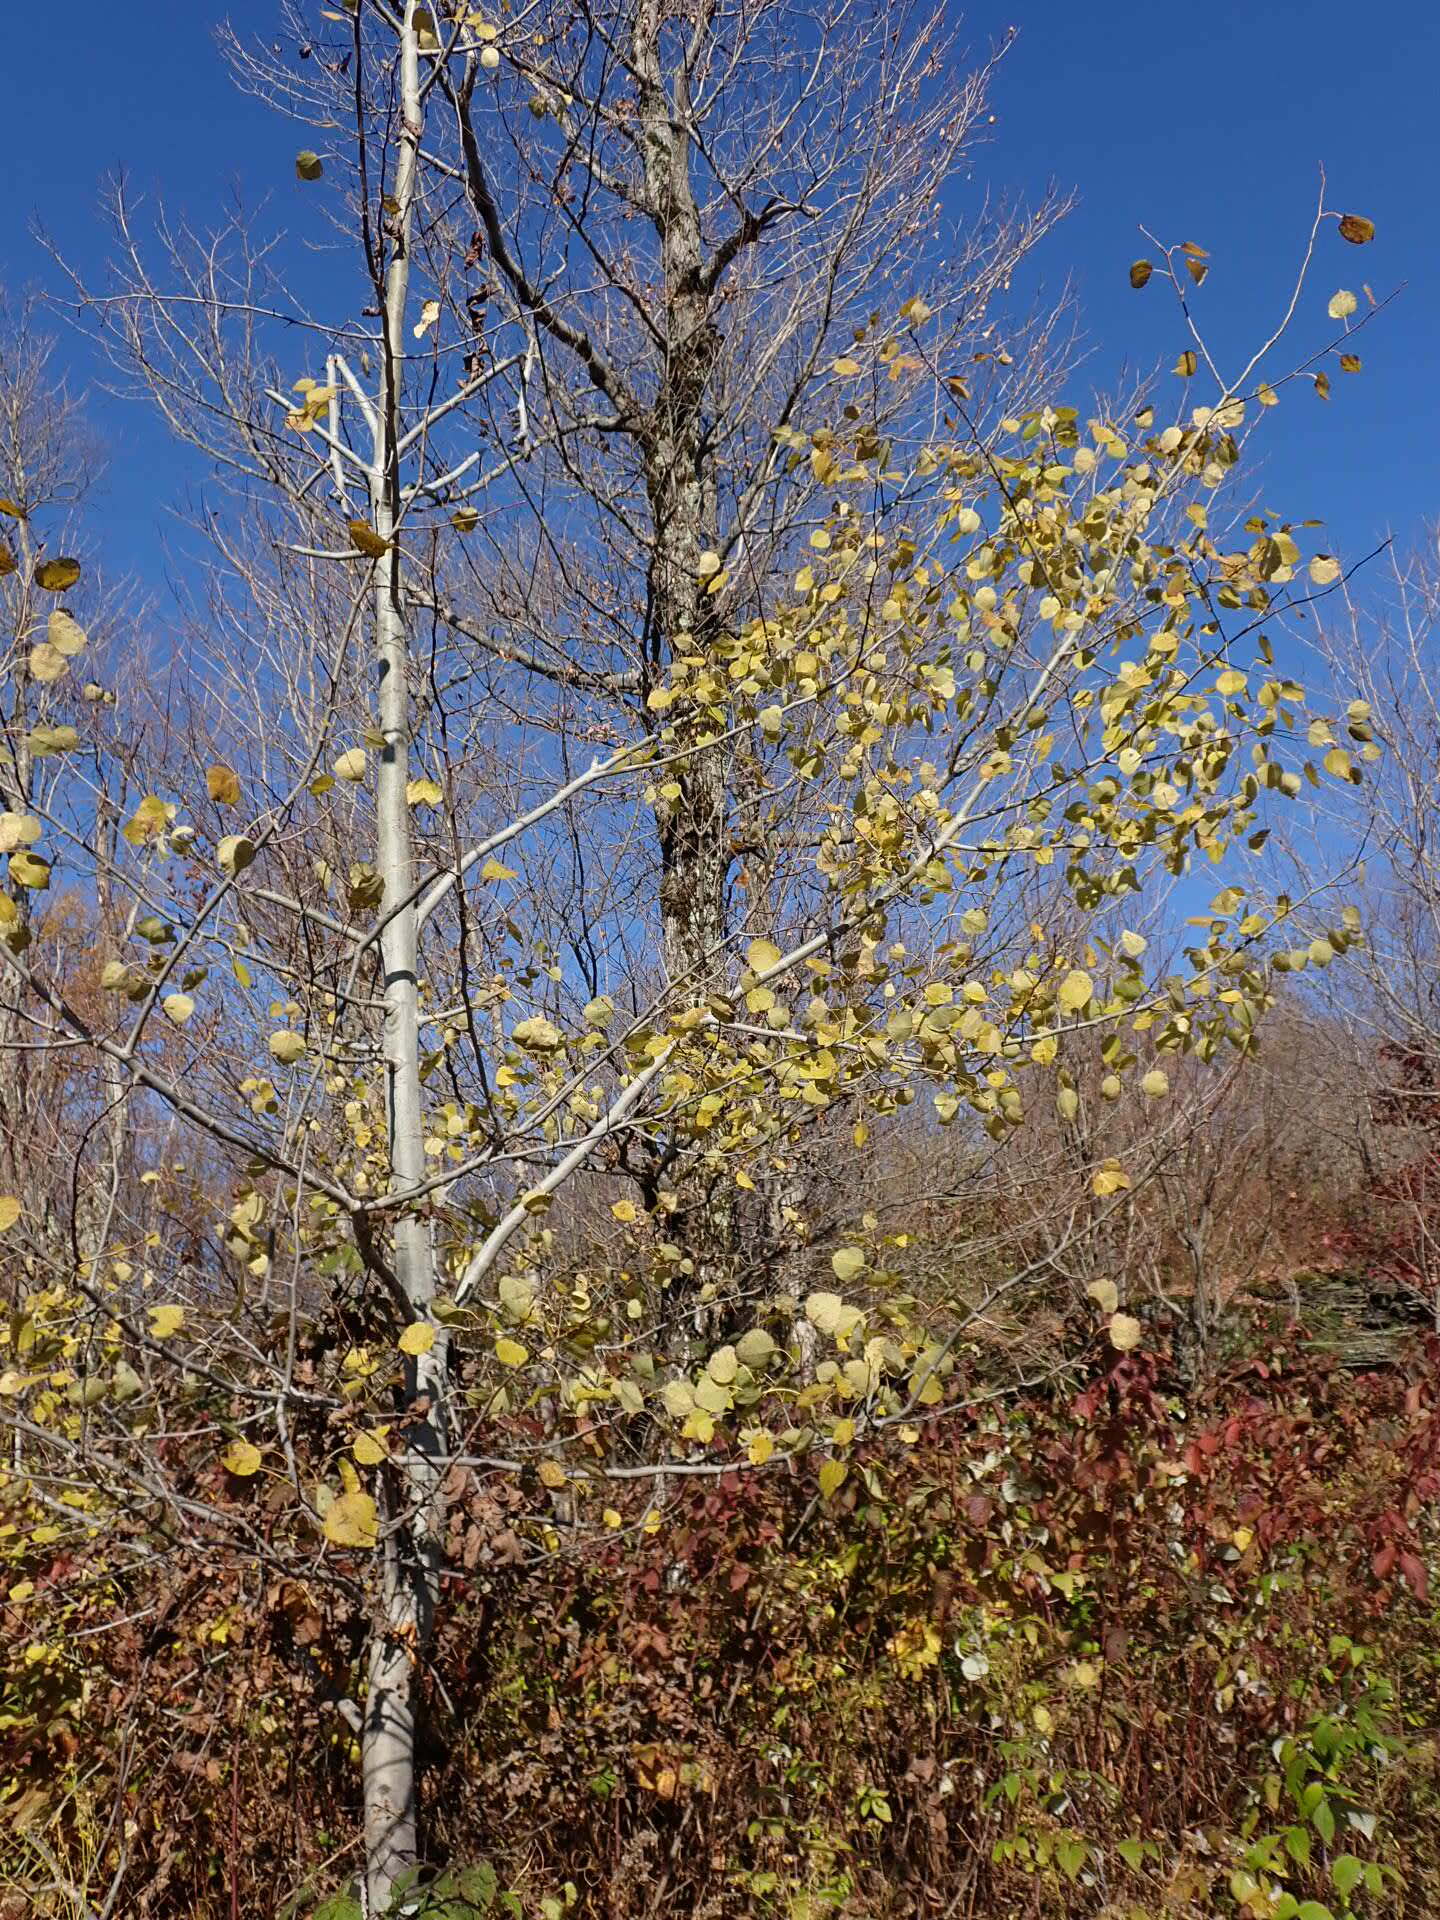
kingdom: Plantae
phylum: Tracheophyta
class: Magnoliopsida
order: Malpighiales
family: Salicaceae
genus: Populus
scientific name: Populus tremuloides
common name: Quaking aspen
